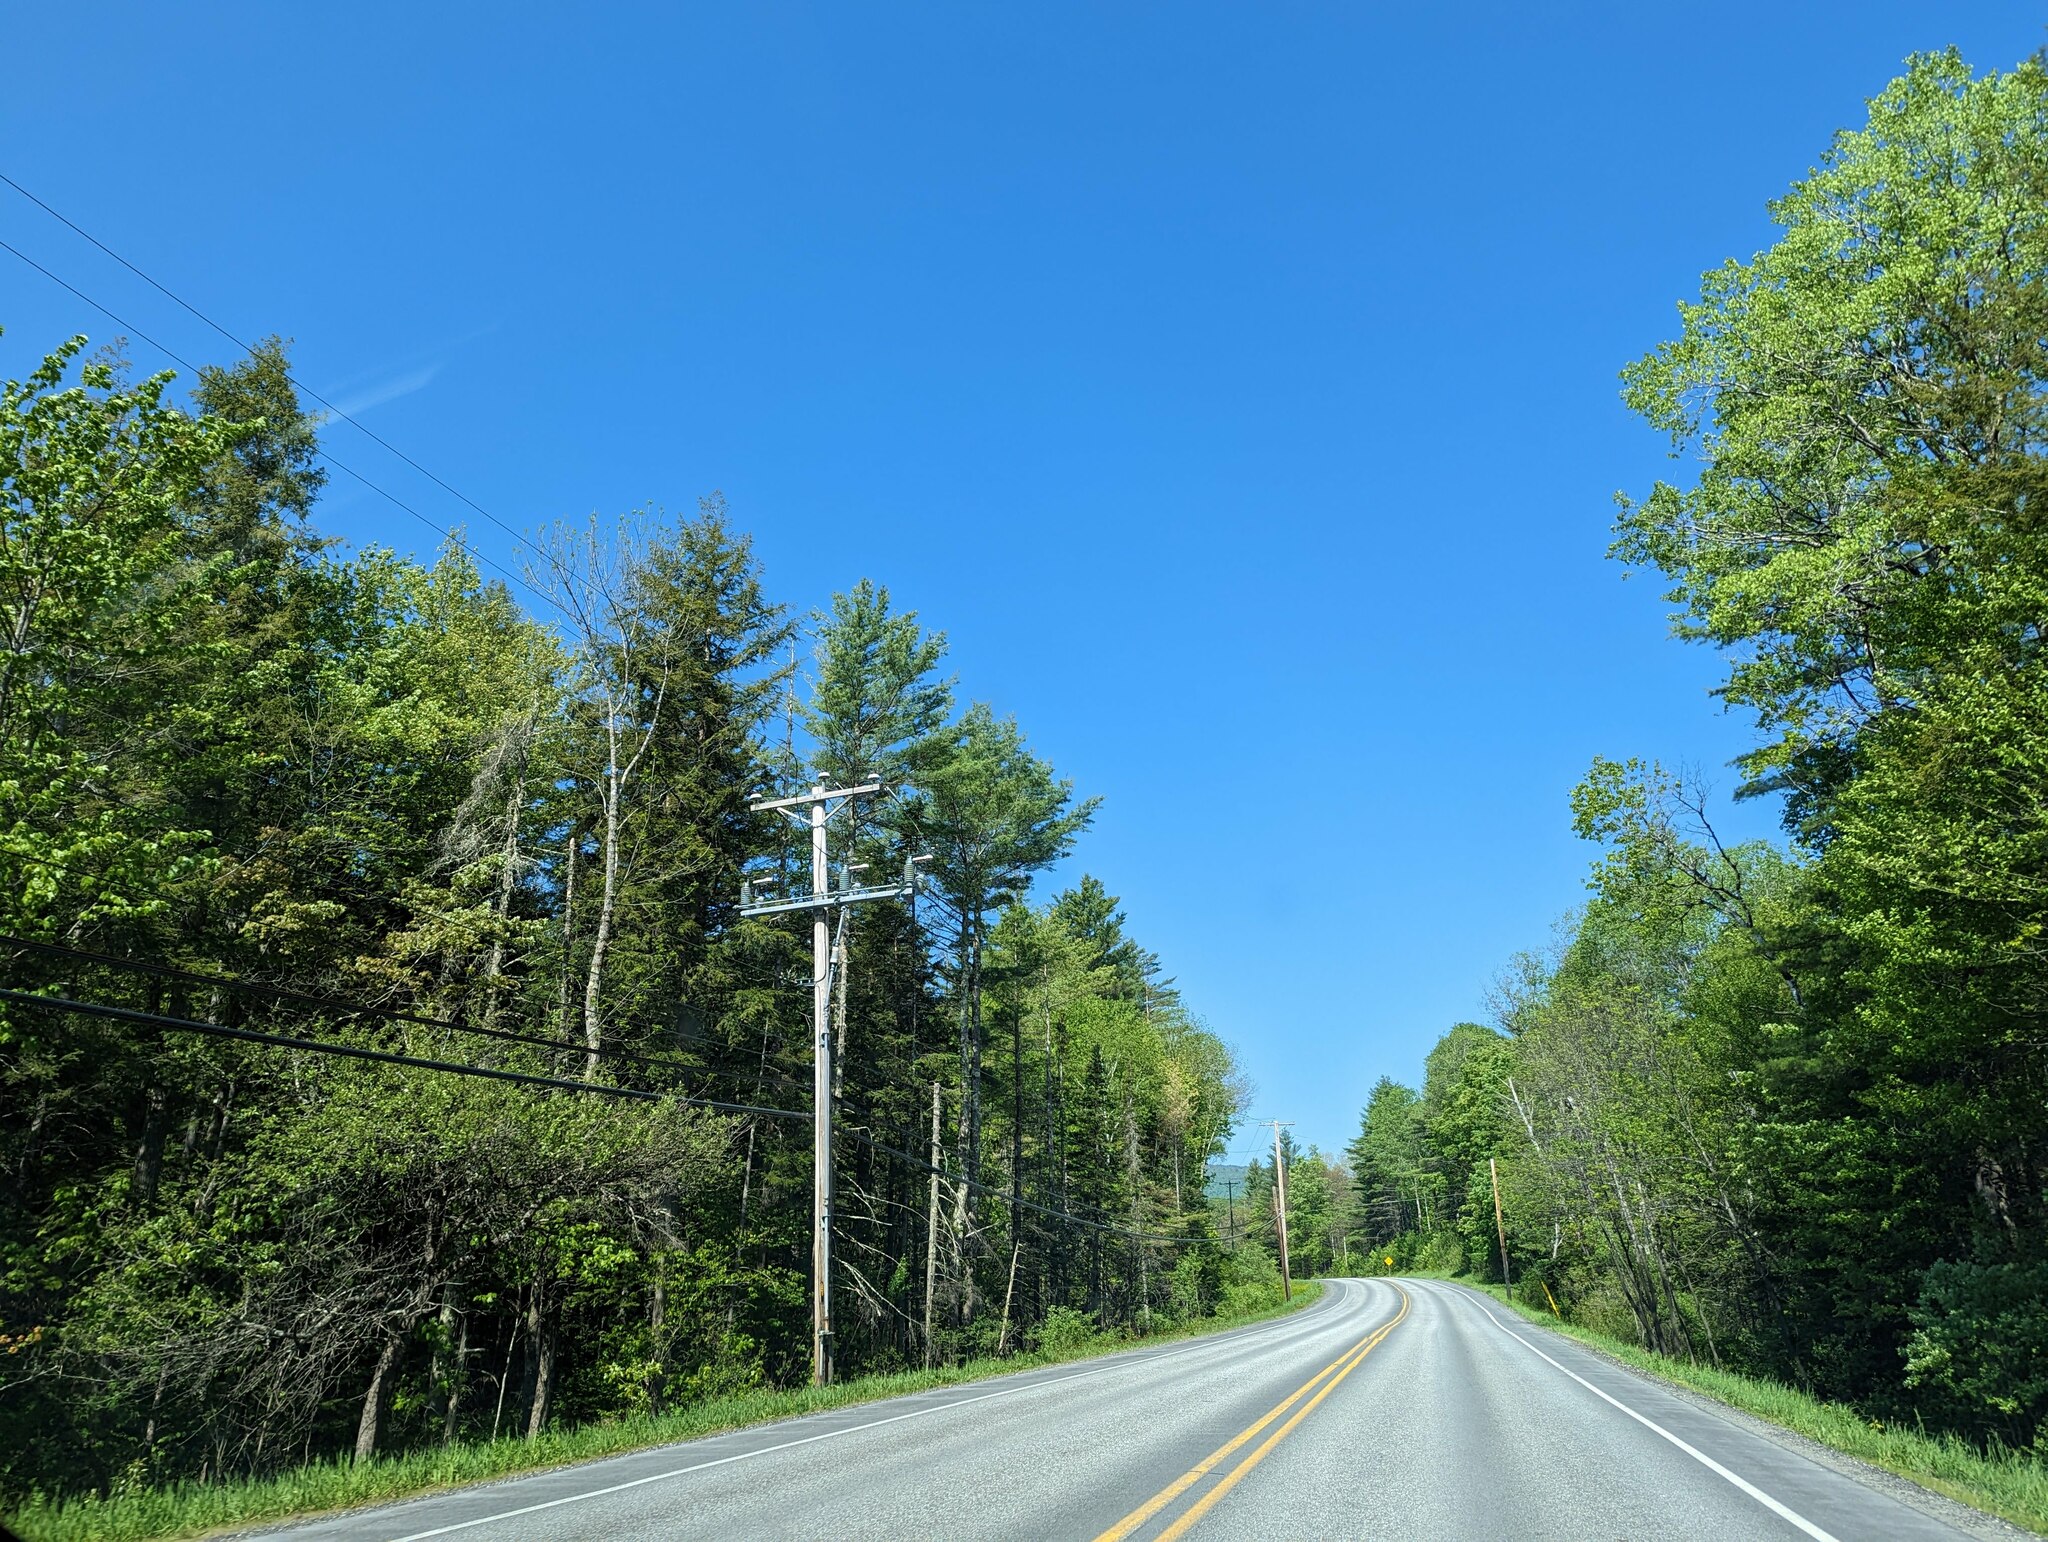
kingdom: Plantae
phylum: Tracheophyta
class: Pinopsida
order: Pinales
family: Pinaceae
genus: Pinus
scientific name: Pinus strobus
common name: Weymouth pine
